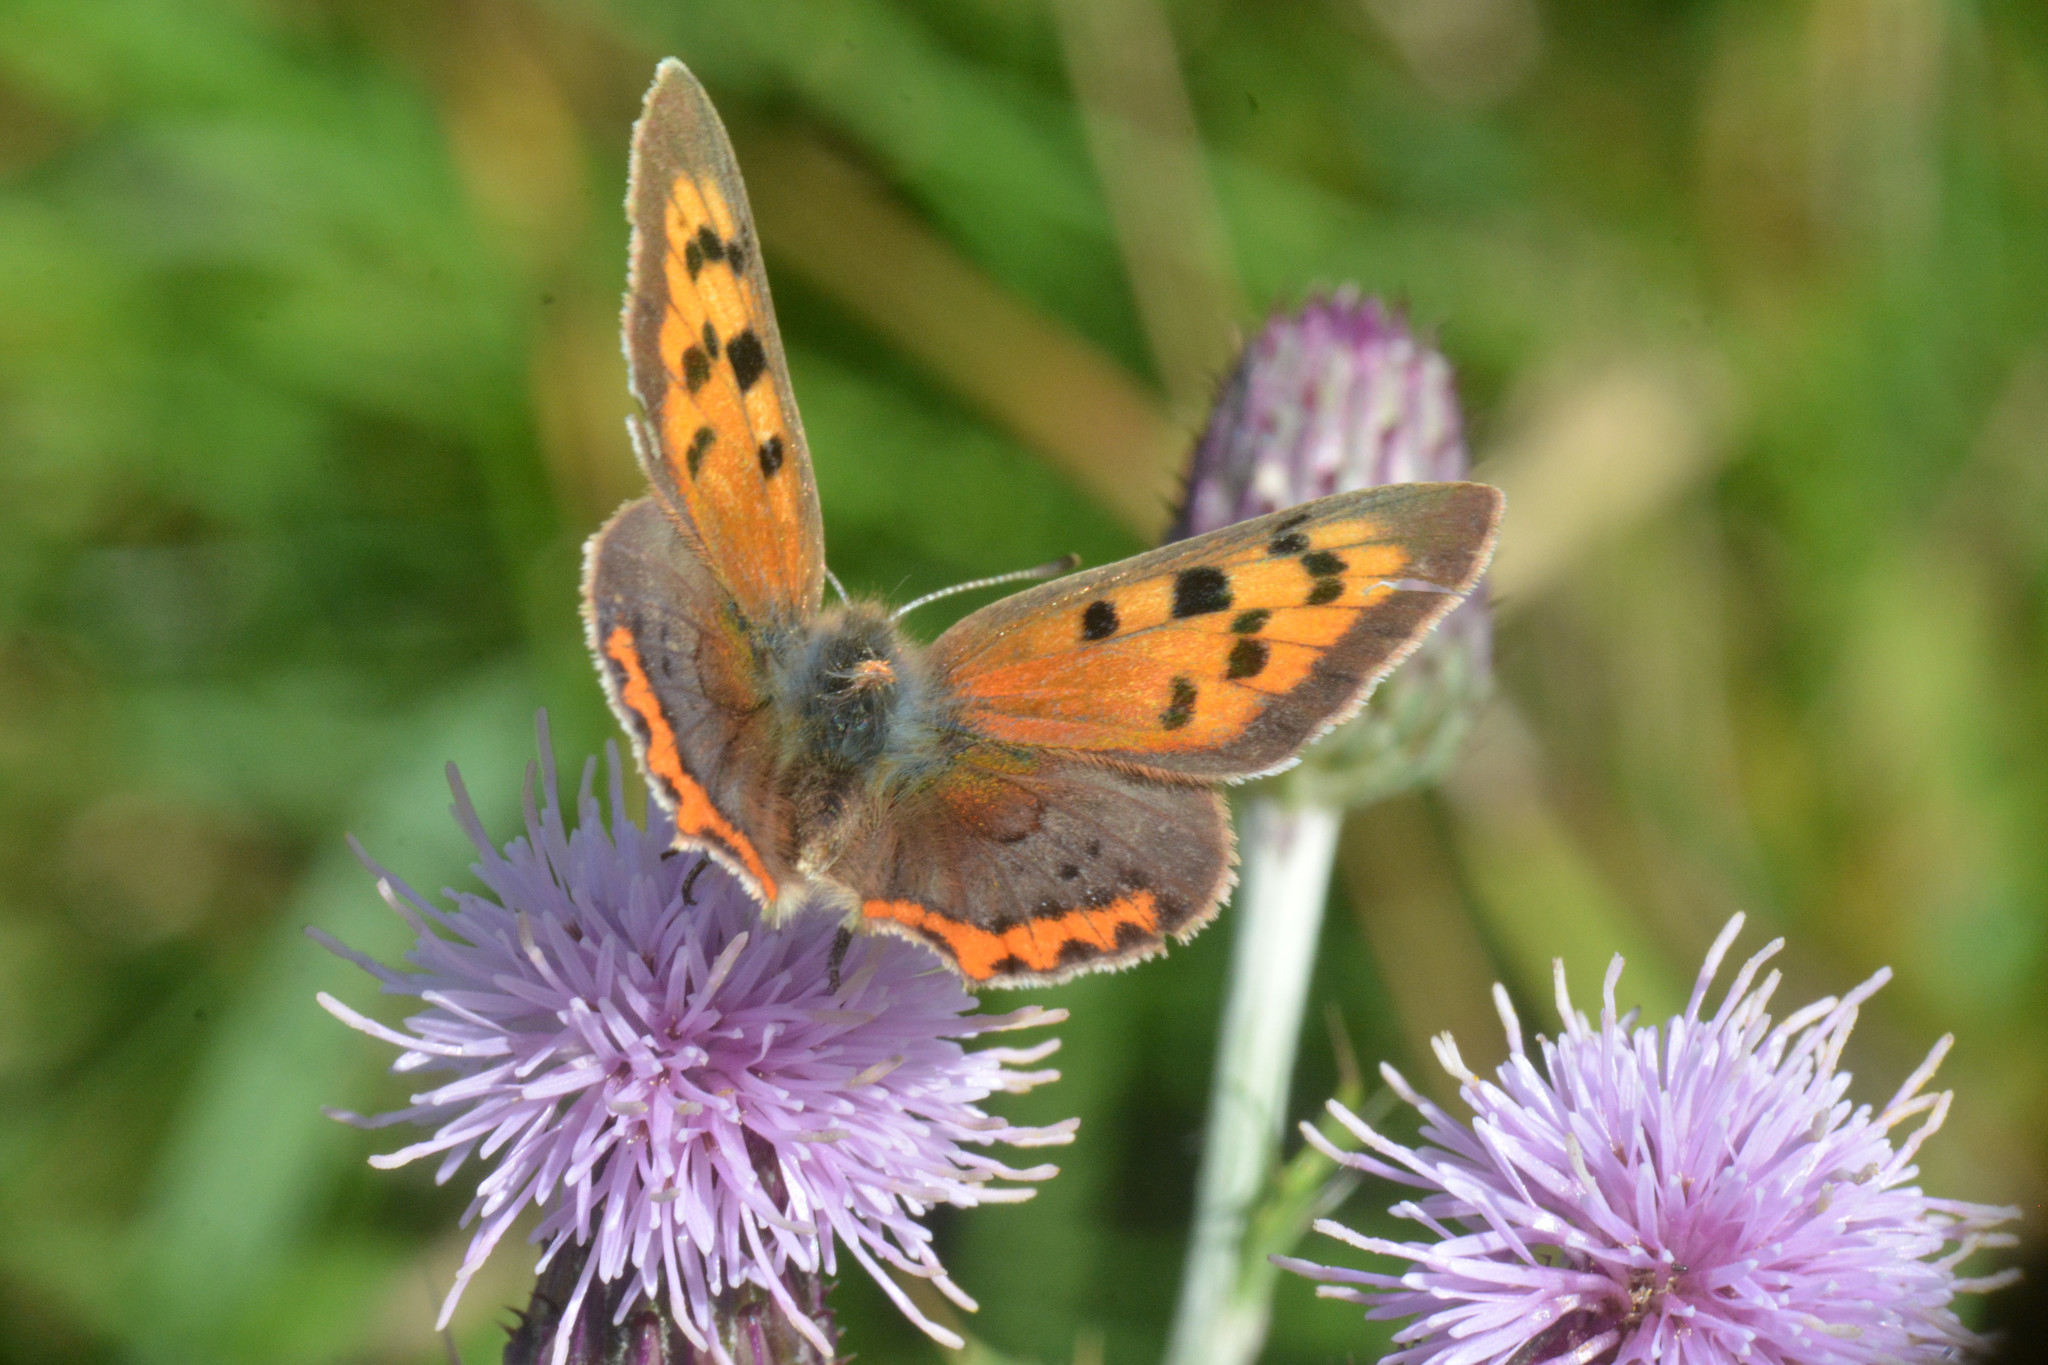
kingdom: Animalia
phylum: Arthropoda
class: Insecta
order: Lepidoptera
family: Lycaenidae
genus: Lycaena
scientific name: Lycaena phlaeas
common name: Small copper
